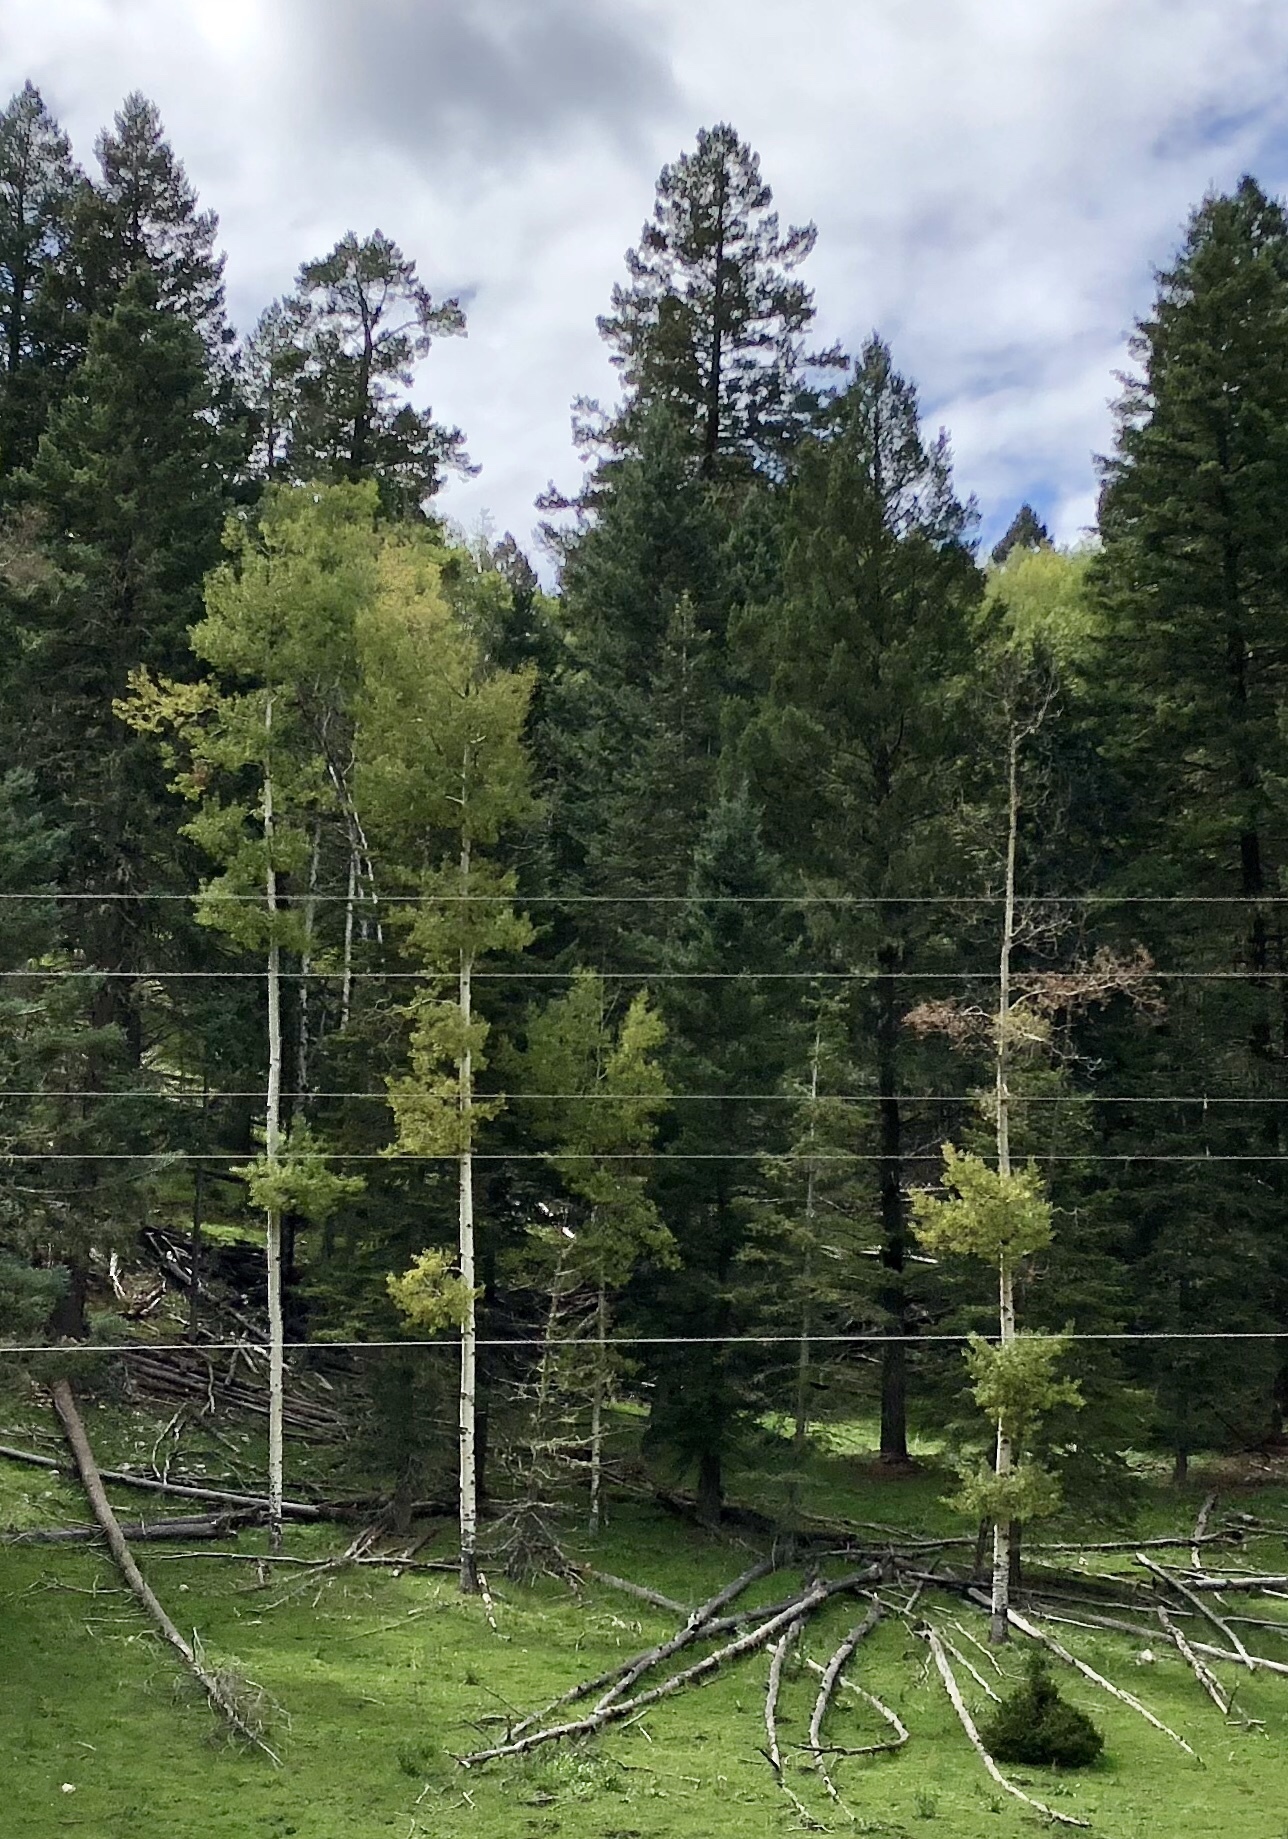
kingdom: Plantae
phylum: Tracheophyta
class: Magnoliopsida
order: Malpighiales
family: Salicaceae
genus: Populus
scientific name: Populus tremuloides
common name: Quaking aspen
